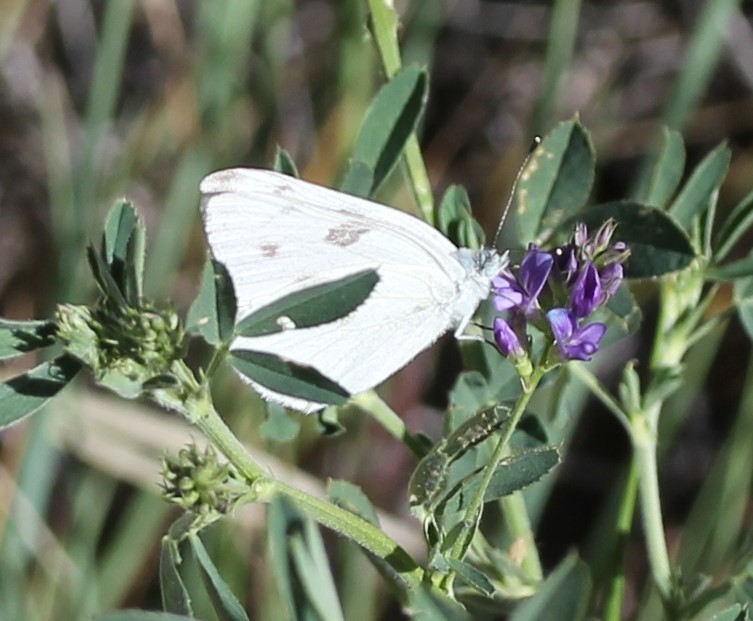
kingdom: Animalia
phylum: Arthropoda
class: Insecta
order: Lepidoptera
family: Pieridae
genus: Pontia
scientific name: Pontia protodice
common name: Checkered white
